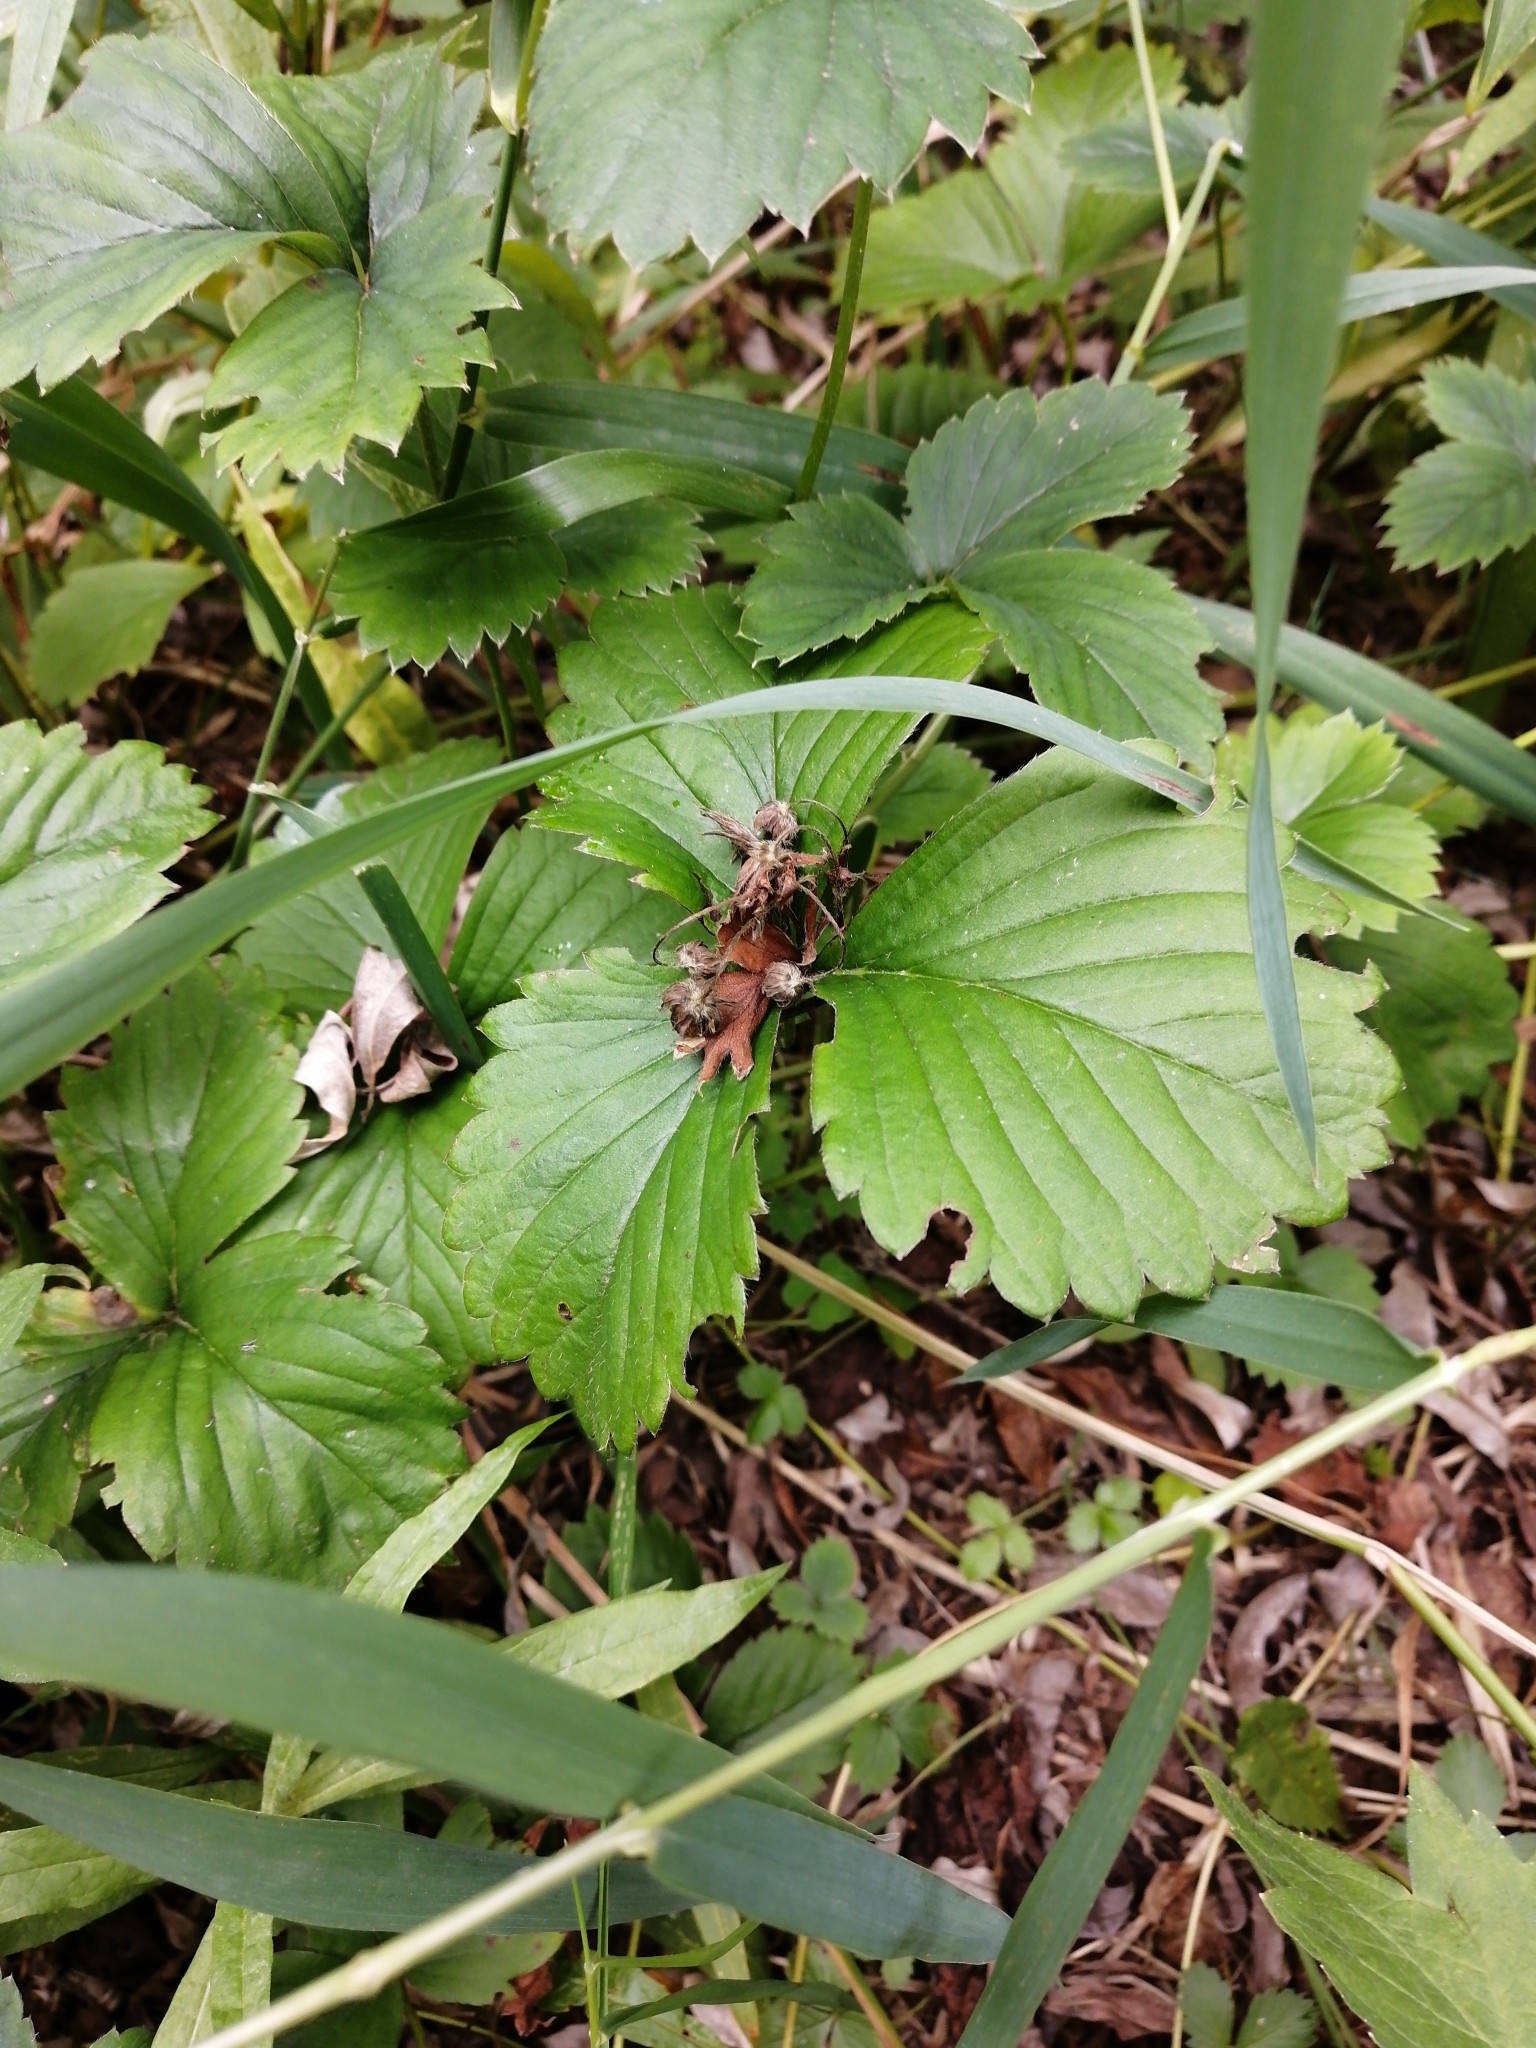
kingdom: Plantae
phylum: Tracheophyta
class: Magnoliopsida
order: Rosales
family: Rosaceae
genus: Fragaria
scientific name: Fragaria ananassa
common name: Garden strawberry
